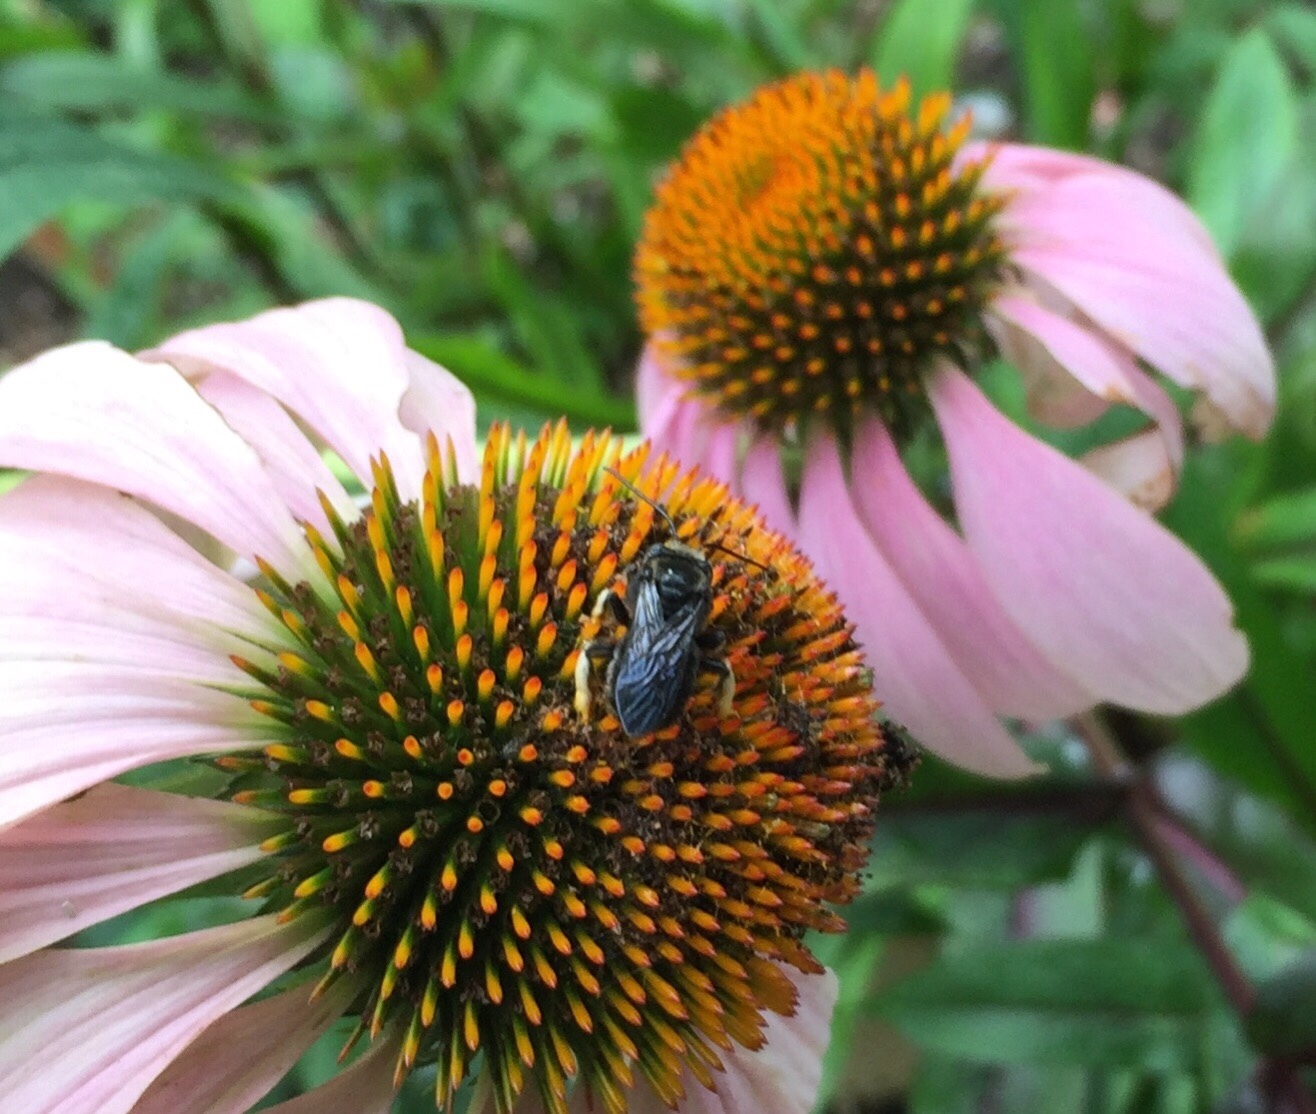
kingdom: Animalia
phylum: Arthropoda
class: Insecta
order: Hymenoptera
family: Apidae
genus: Melissodes
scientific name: Melissodes bimaculatus
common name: Two-spotted long-horned bee
